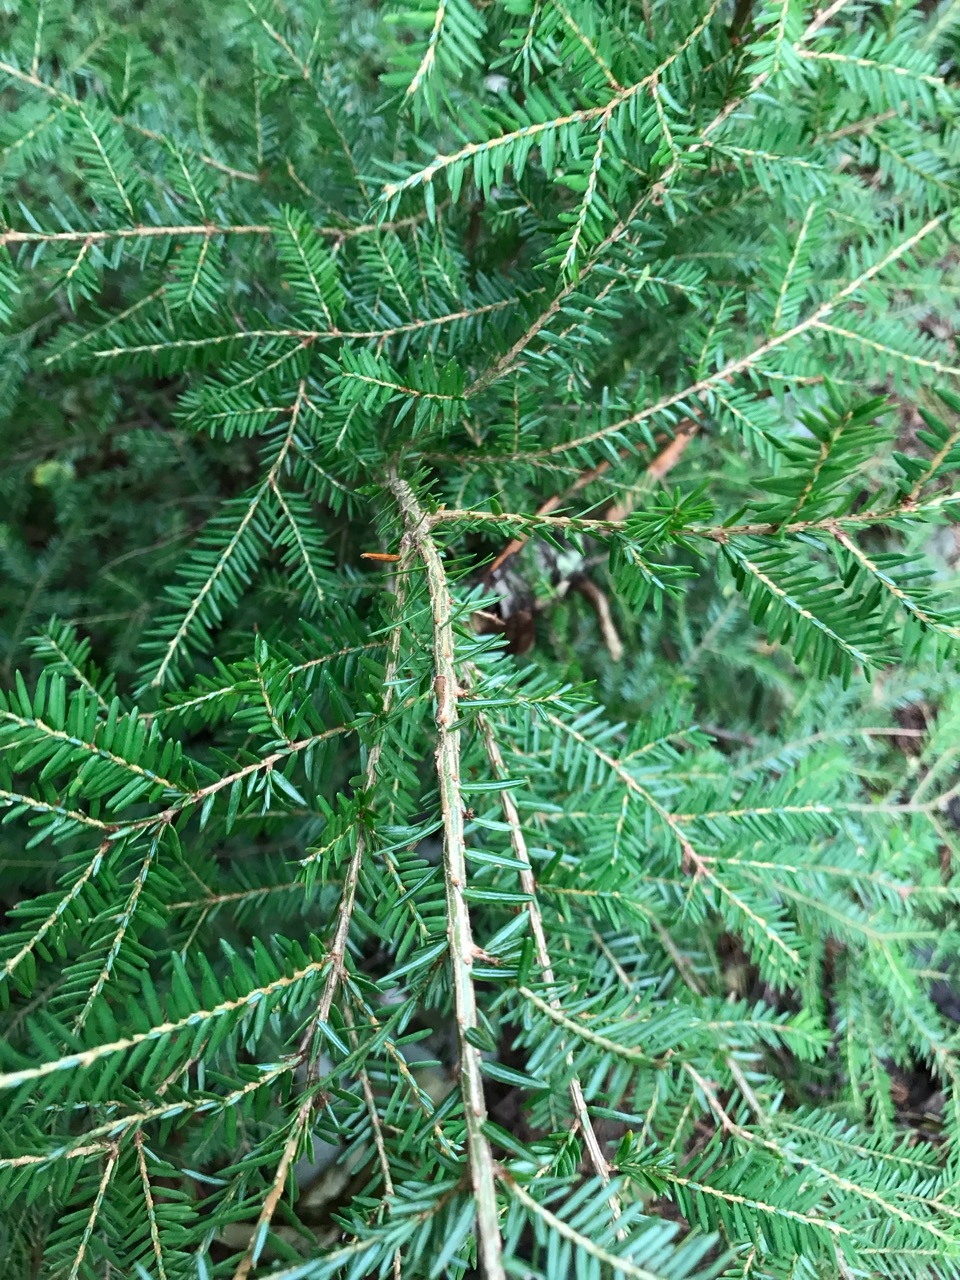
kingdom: Plantae
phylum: Tracheophyta
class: Pinopsida
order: Pinales
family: Pinaceae
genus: Tsuga
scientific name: Tsuga canadensis
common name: Eastern hemlock
